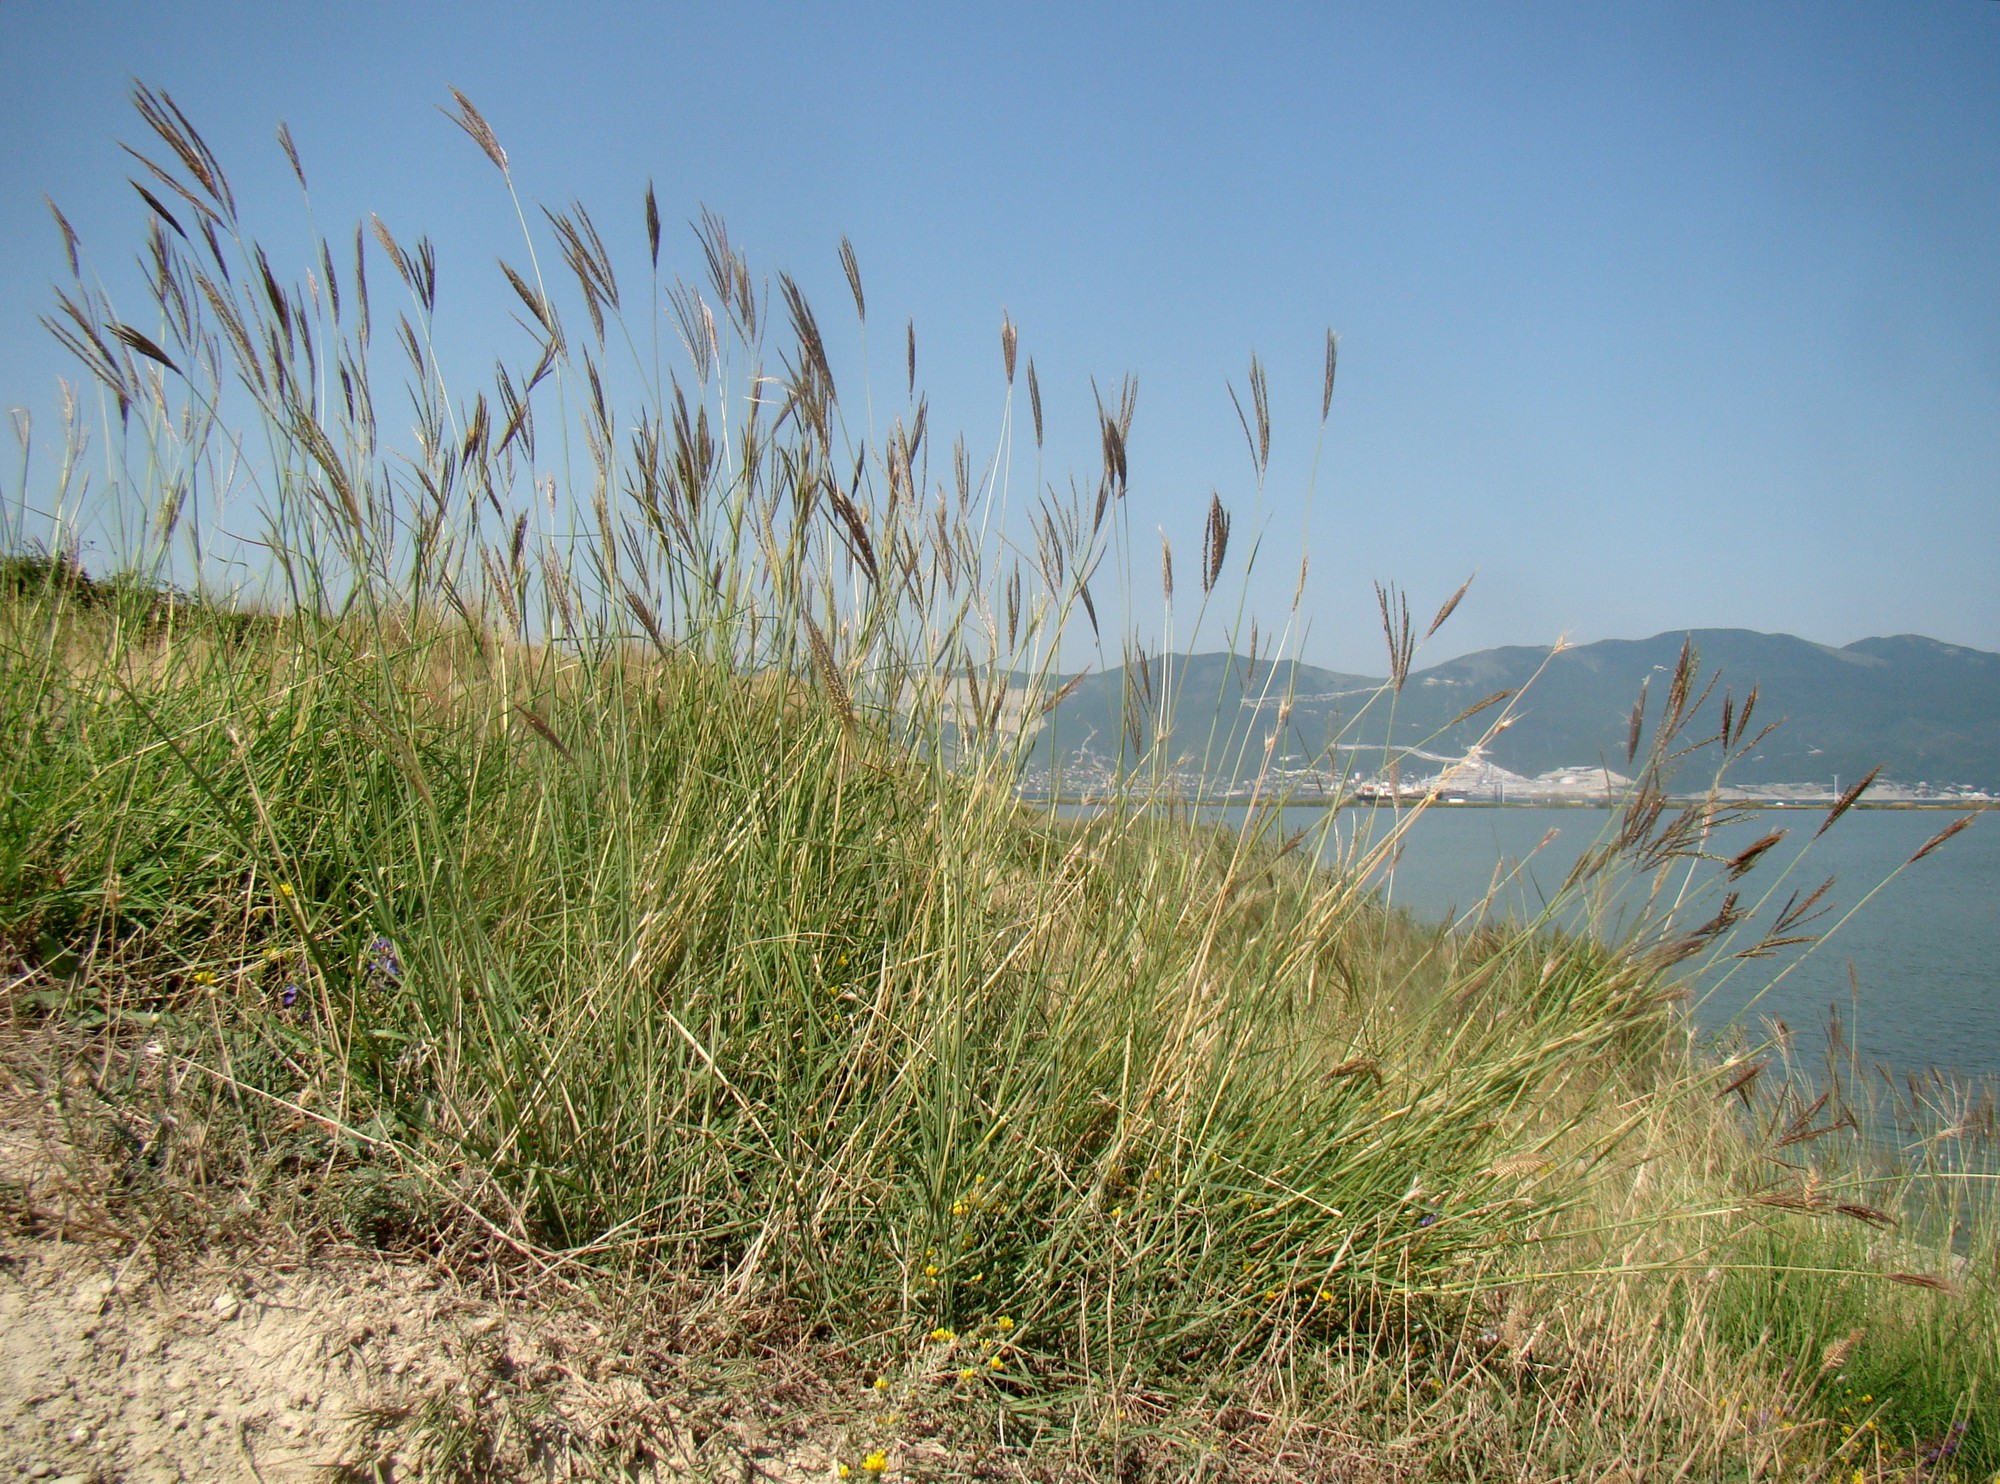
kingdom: Plantae
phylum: Tracheophyta
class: Liliopsida
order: Poales
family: Poaceae
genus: Bothriochloa
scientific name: Bothriochloa ischaemum
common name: Yellow bluestem
